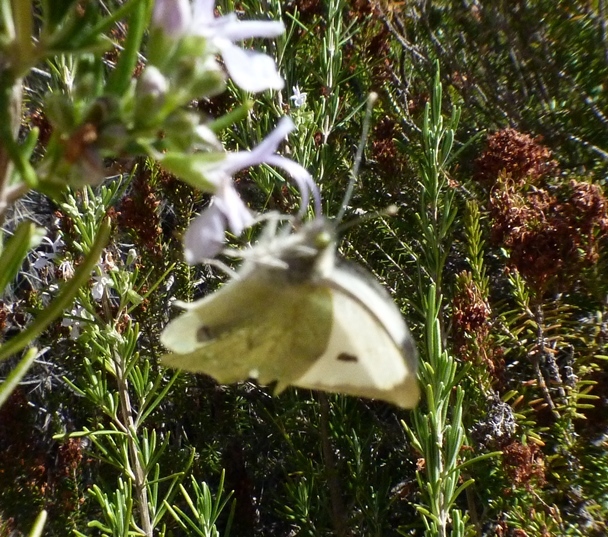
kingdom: Animalia
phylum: Arthropoda
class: Insecta
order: Lepidoptera
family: Pieridae
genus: Pieris
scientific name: Pieris brassicae
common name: Large white
